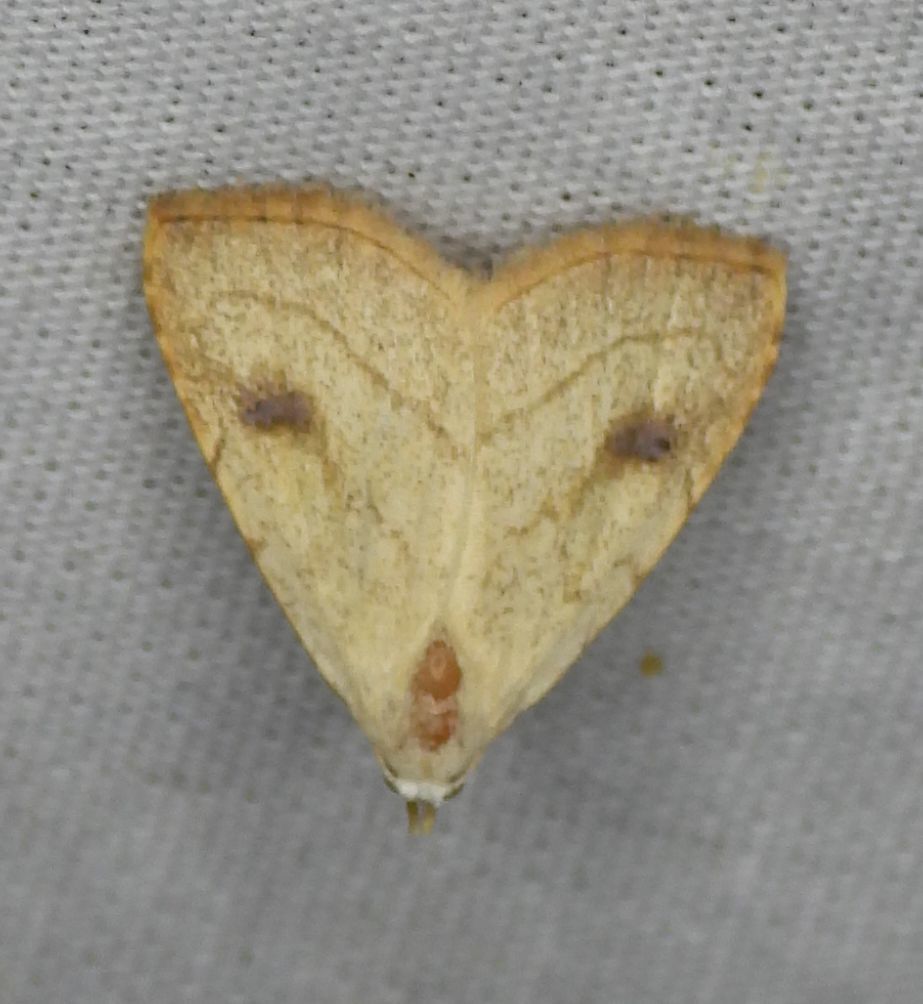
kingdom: Animalia
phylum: Arthropoda
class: Insecta
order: Lepidoptera
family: Erebidae
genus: Rivula
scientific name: Rivula propinqualis
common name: Spotted grass moth
